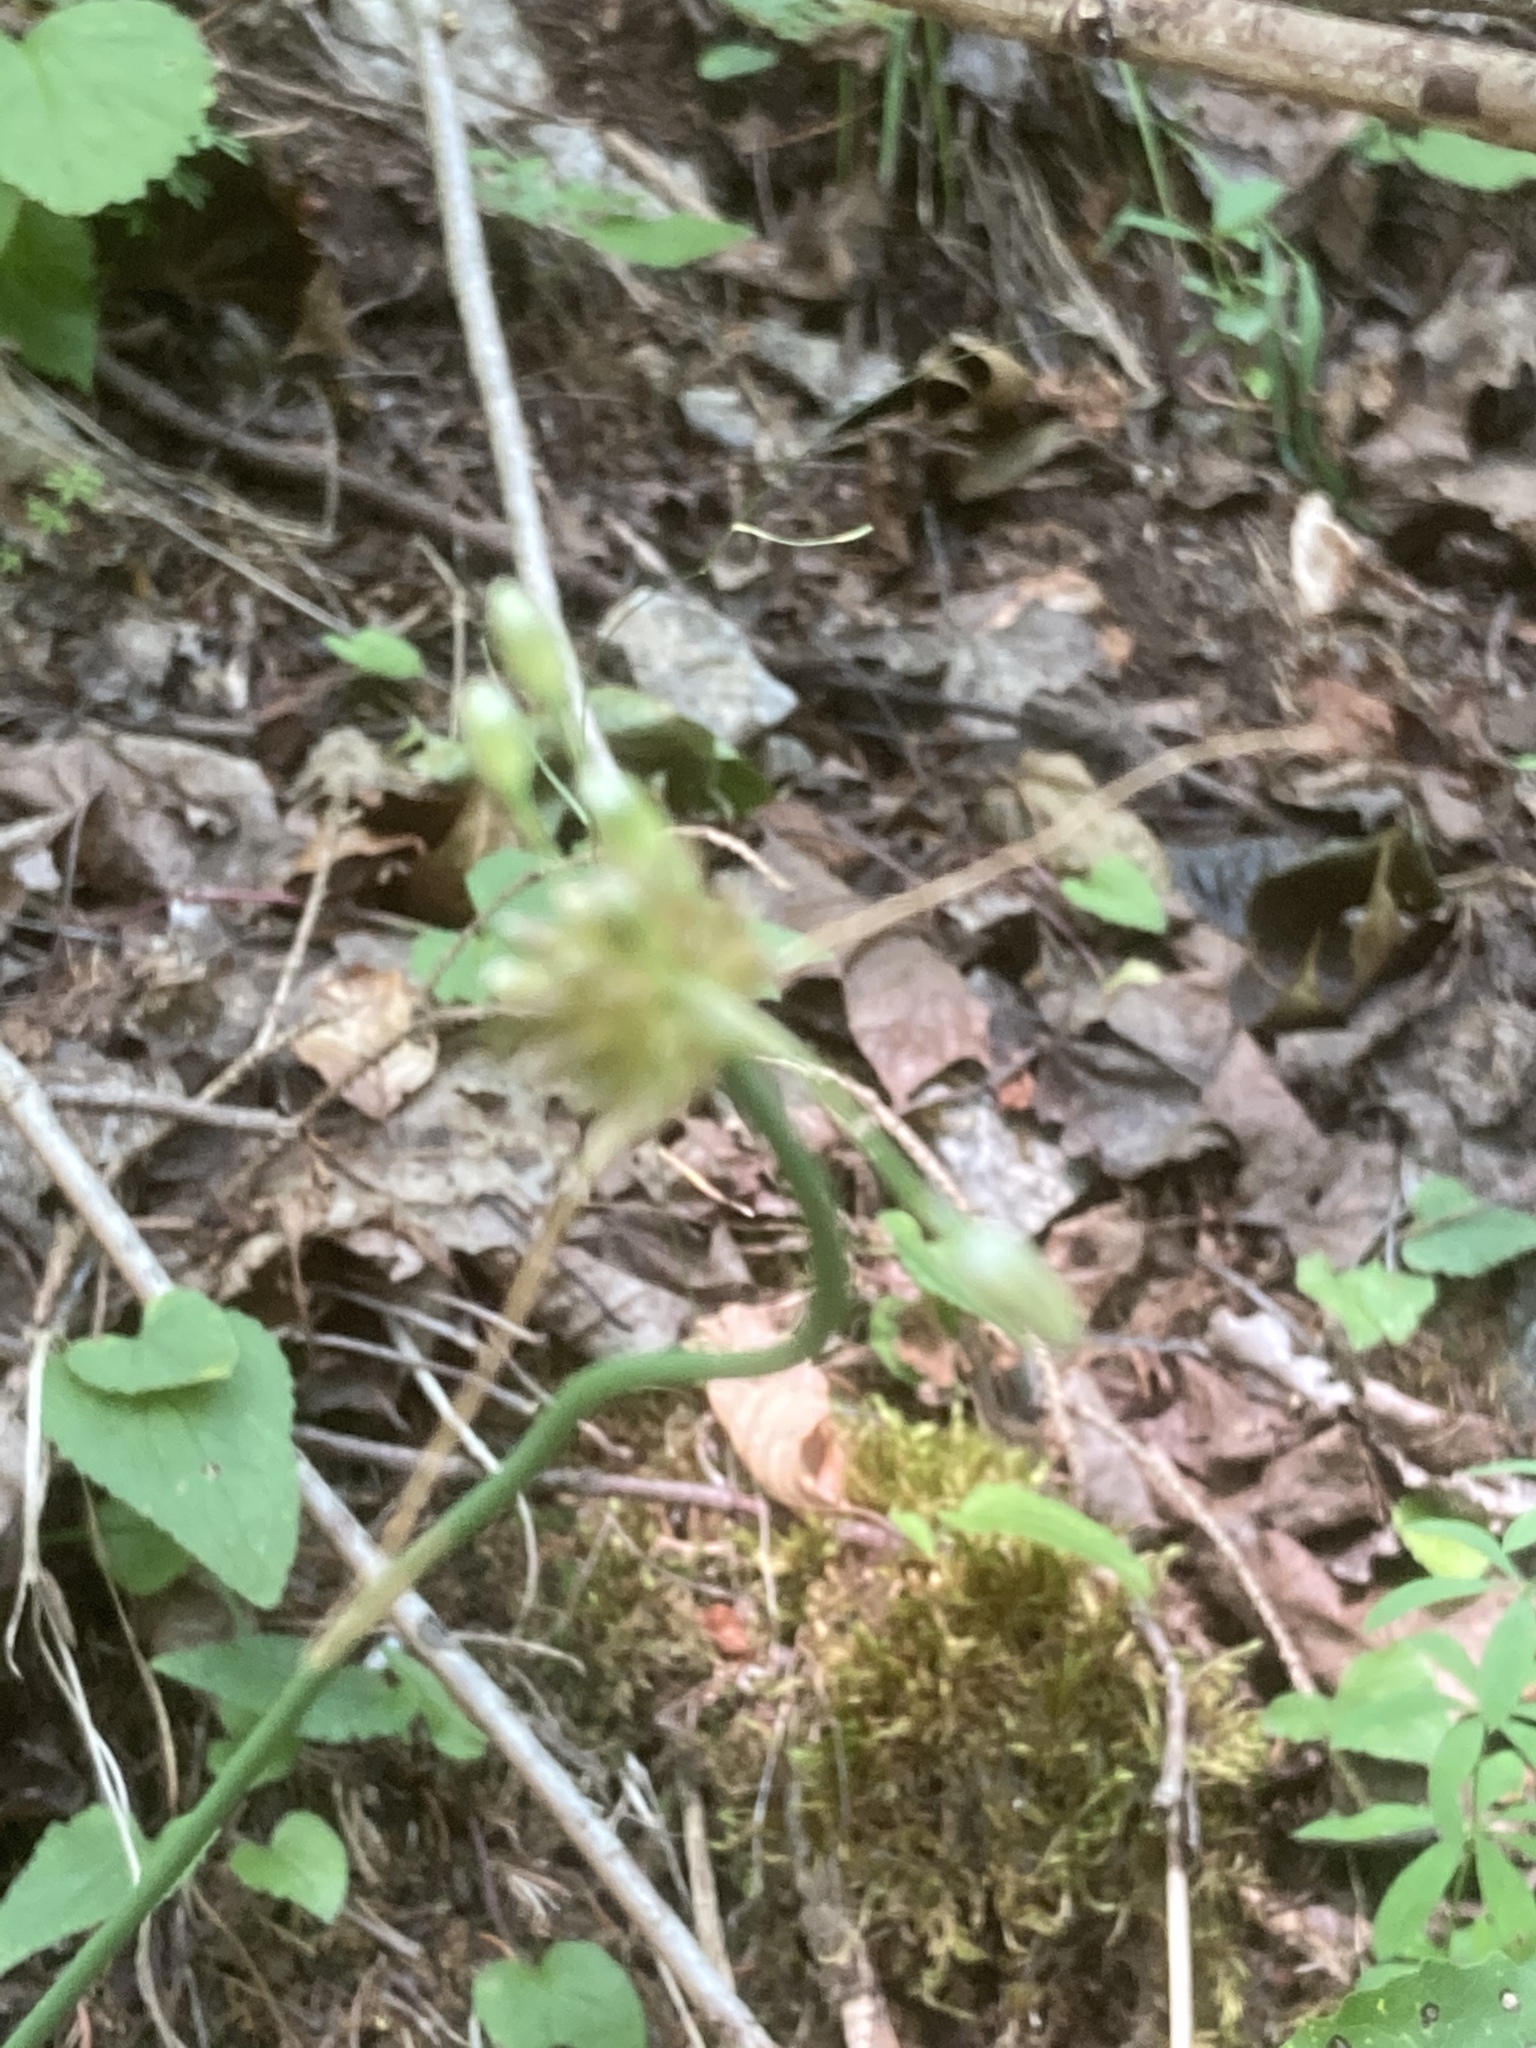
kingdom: Plantae
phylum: Tracheophyta
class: Liliopsida
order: Asparagales
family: Amaryllidaceae
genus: Allium
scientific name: Allium oleraceum
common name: Field garlic
